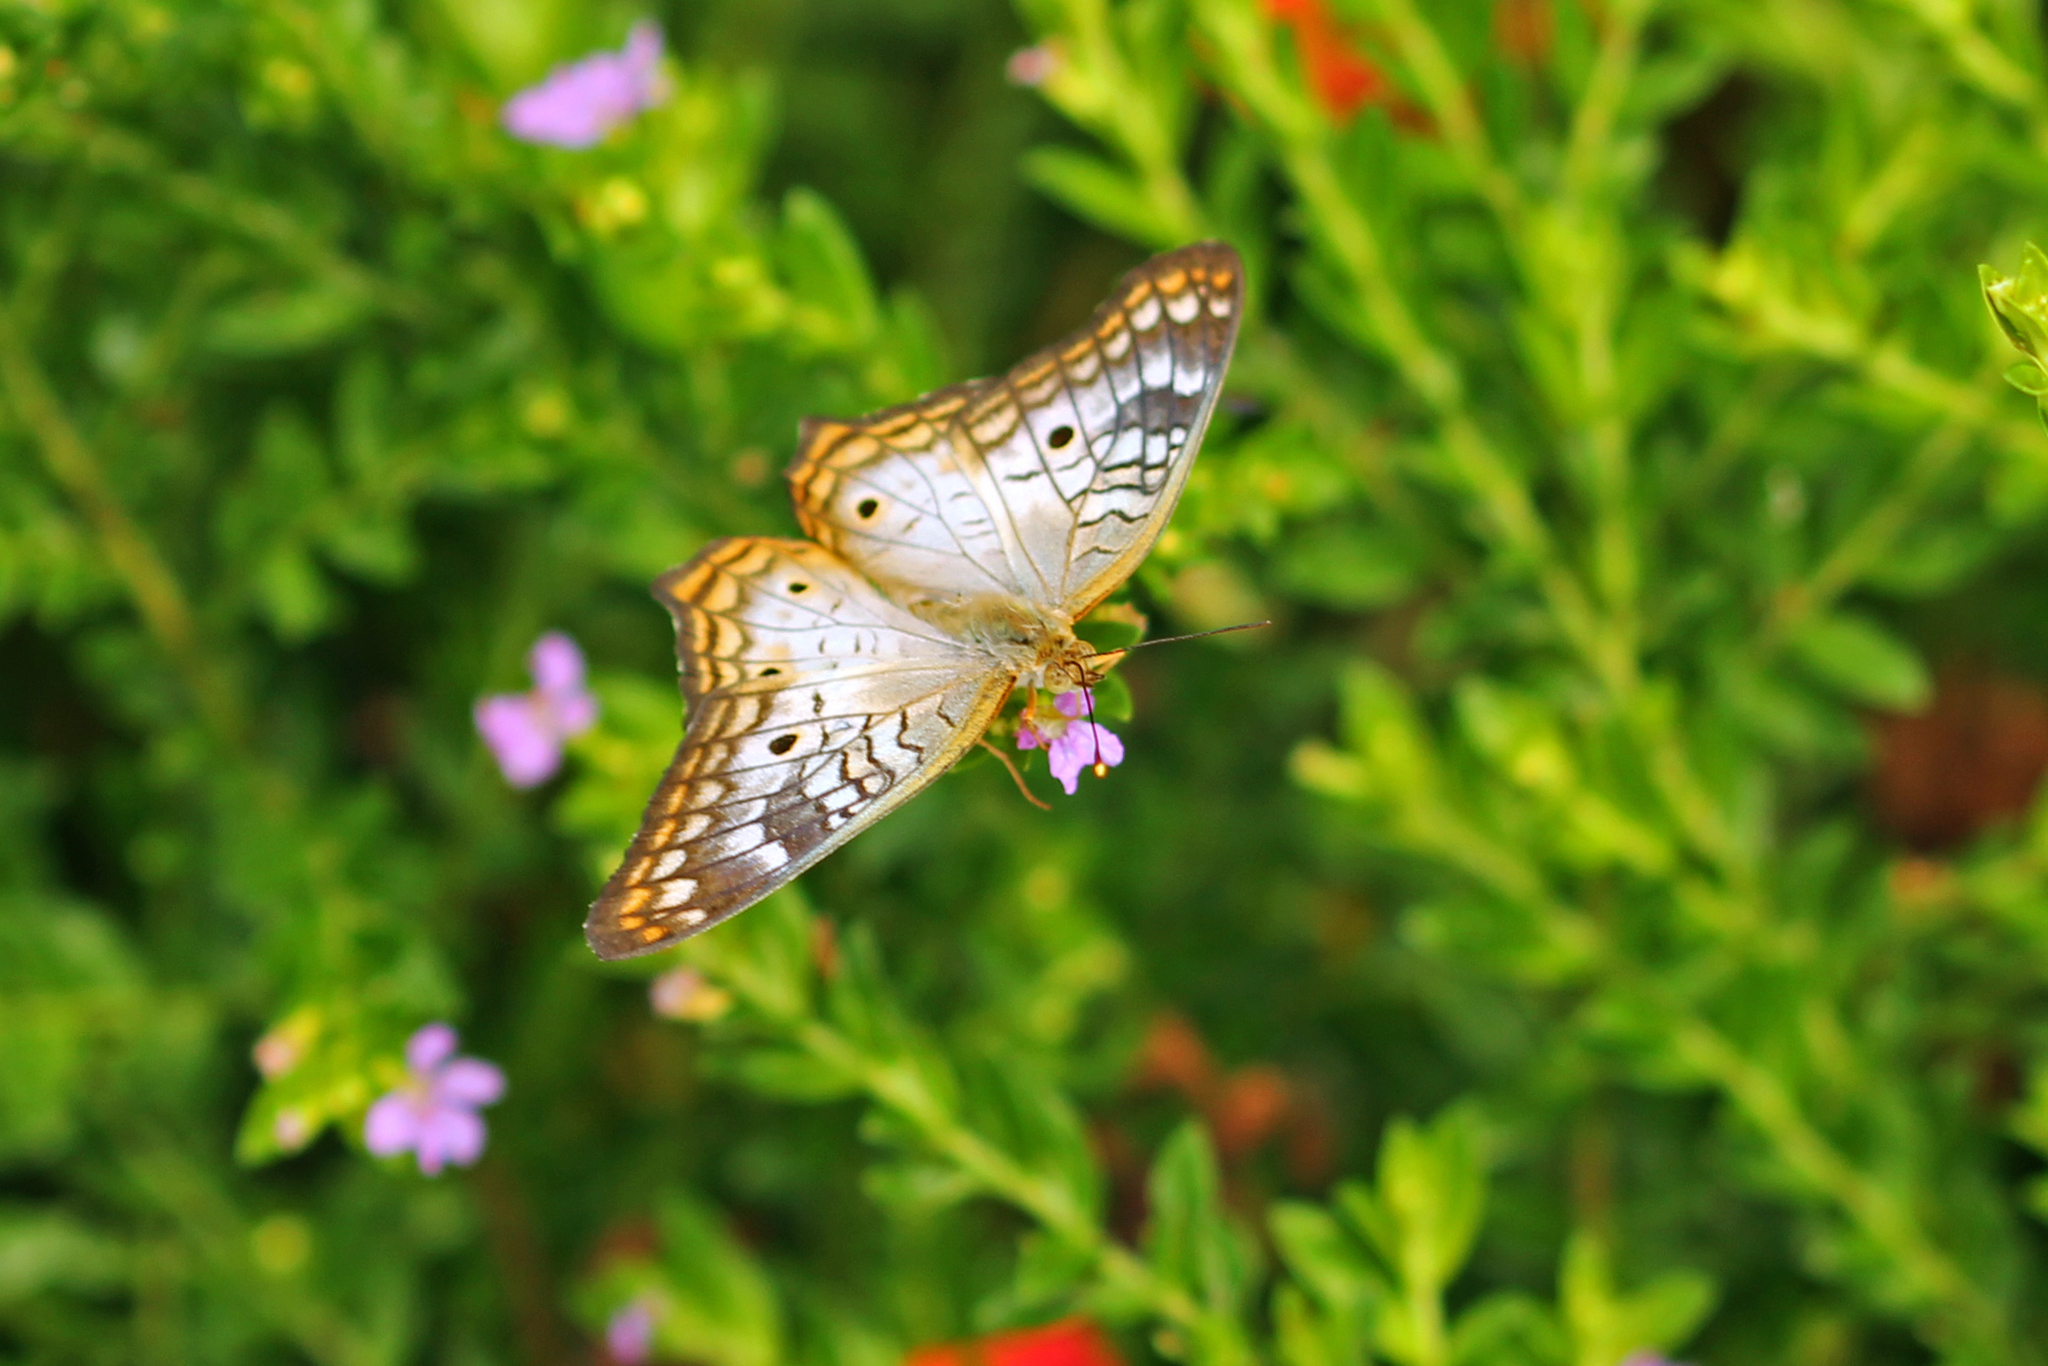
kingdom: Animalia
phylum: Arthropoda
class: Insecta
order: Lepidoptera
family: Nymphalidae
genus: Anartia
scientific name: Anartia jatrophae
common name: White peacock
